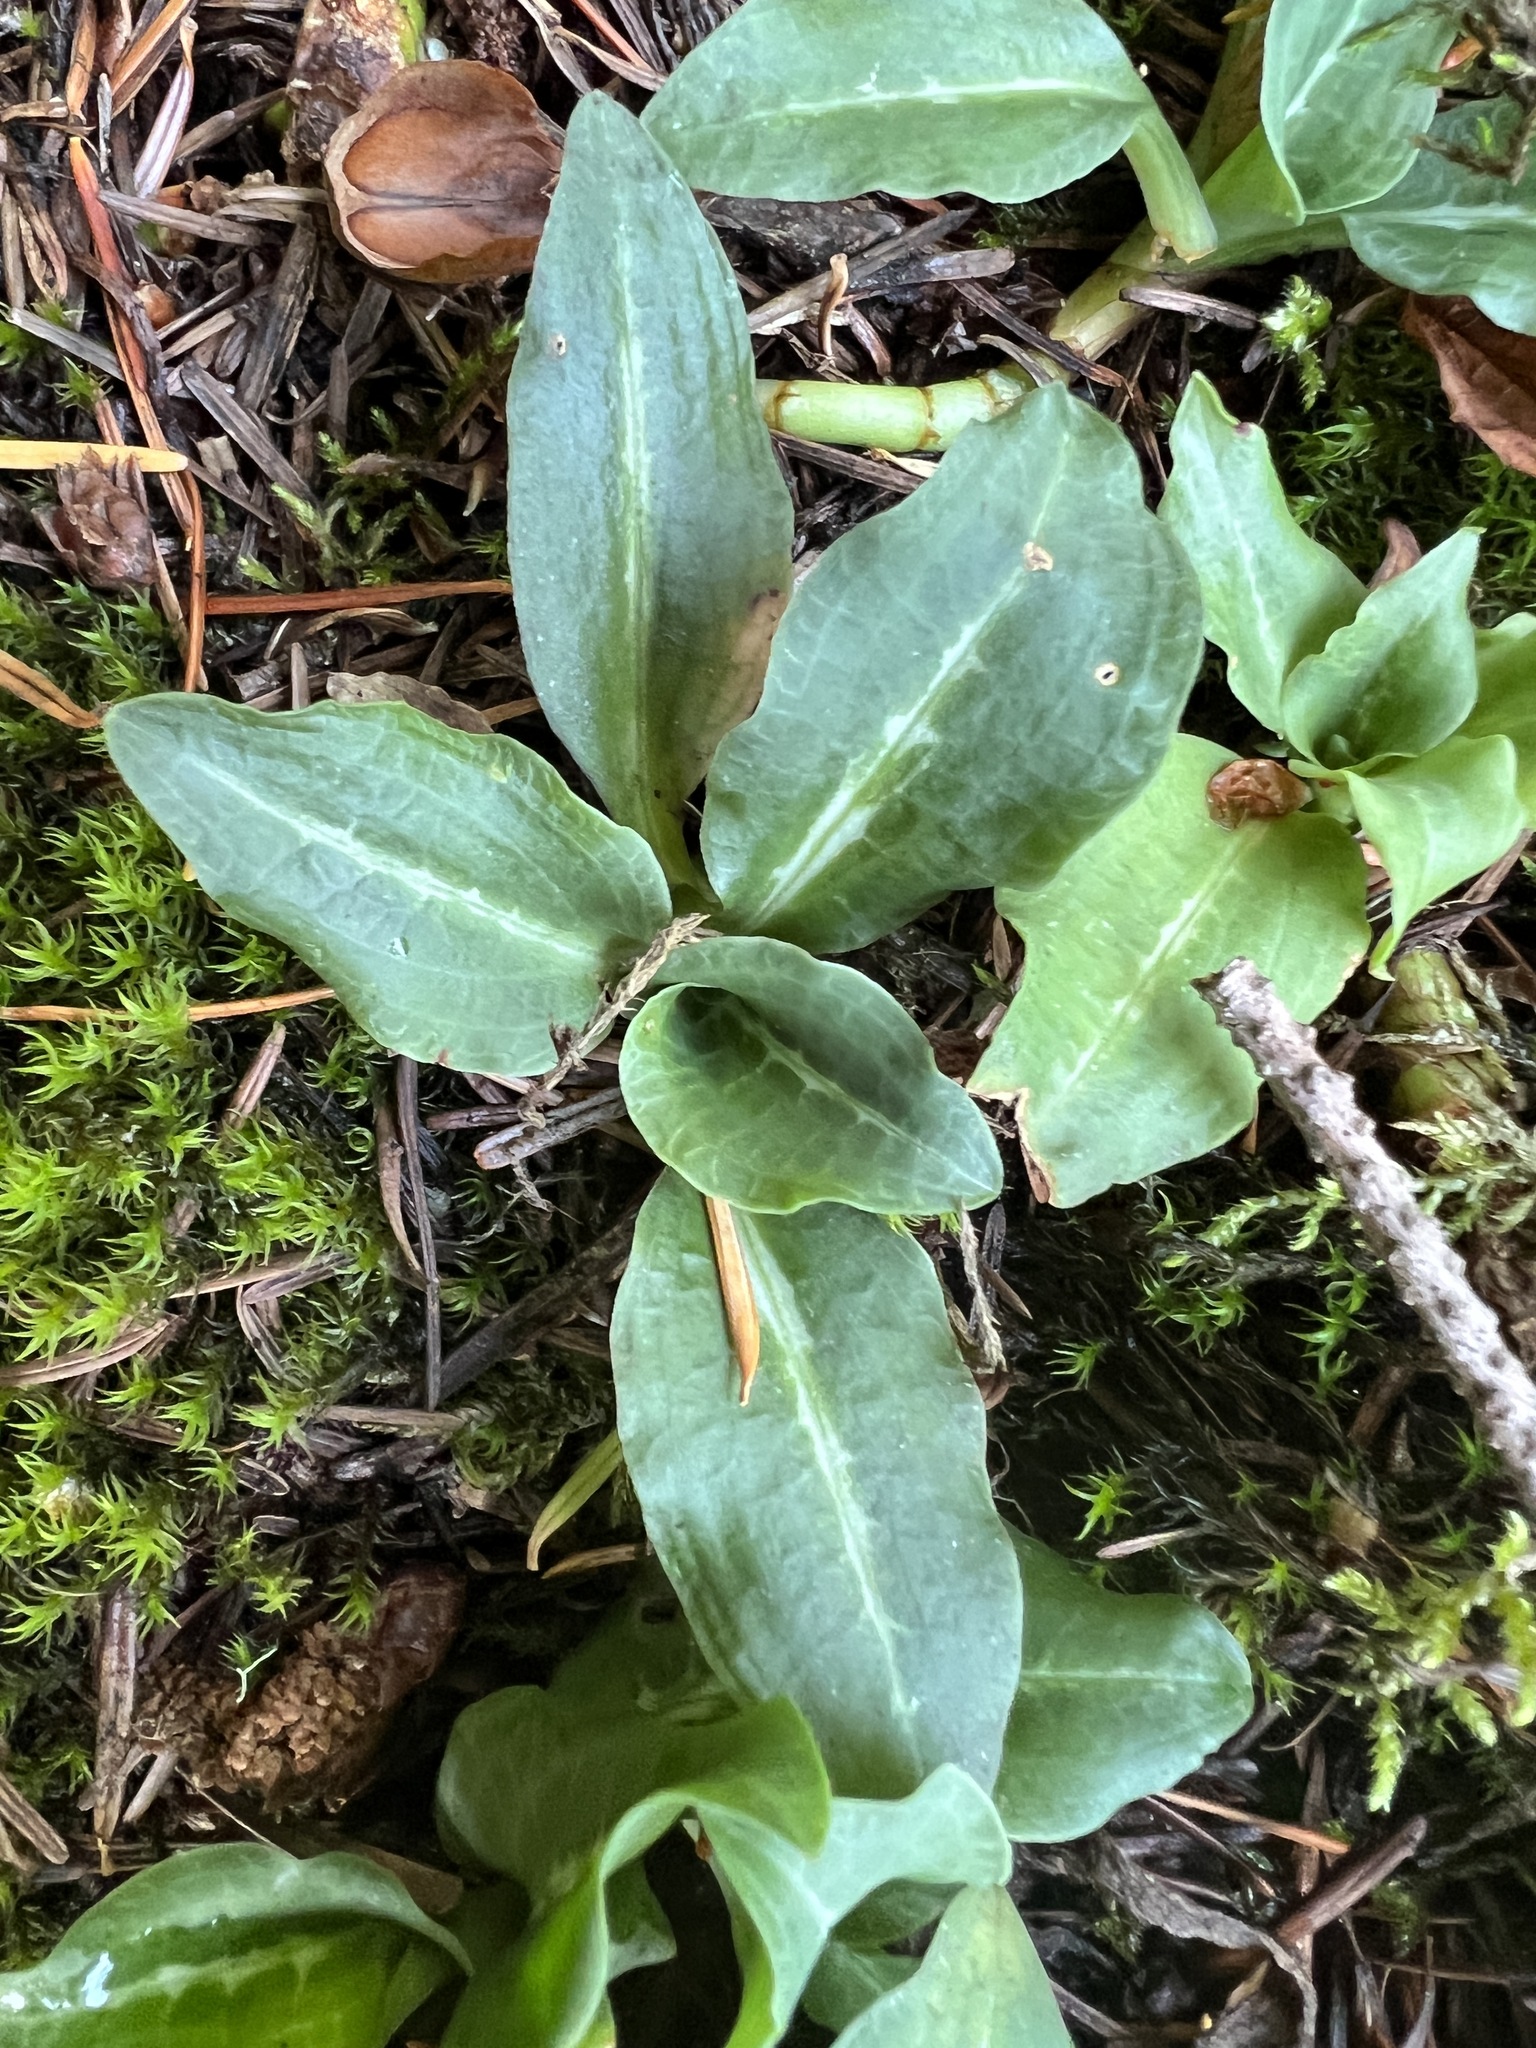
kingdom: Plantae
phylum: Tracheophyta
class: Liliopsida
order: Asparagales
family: Orchidaceae
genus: Goodyera
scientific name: Goodyera oblongifolia
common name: Giant rattlesnake-plantain
